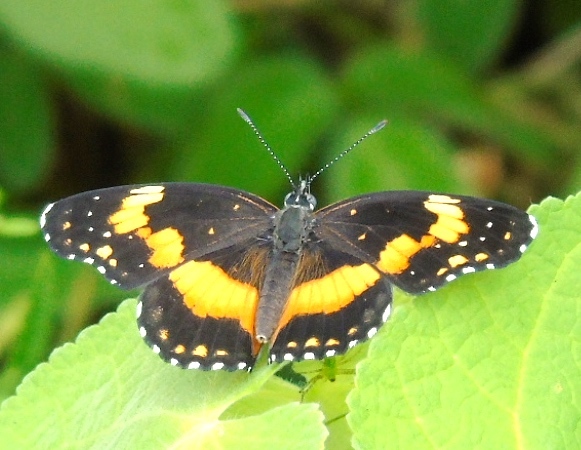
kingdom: Animalia
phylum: Arthropoda
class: Insecta
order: Lepidoptera
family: Nymphalidae
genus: Chlosyne
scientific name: Chlosyne lacinia
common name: Bordered patch
